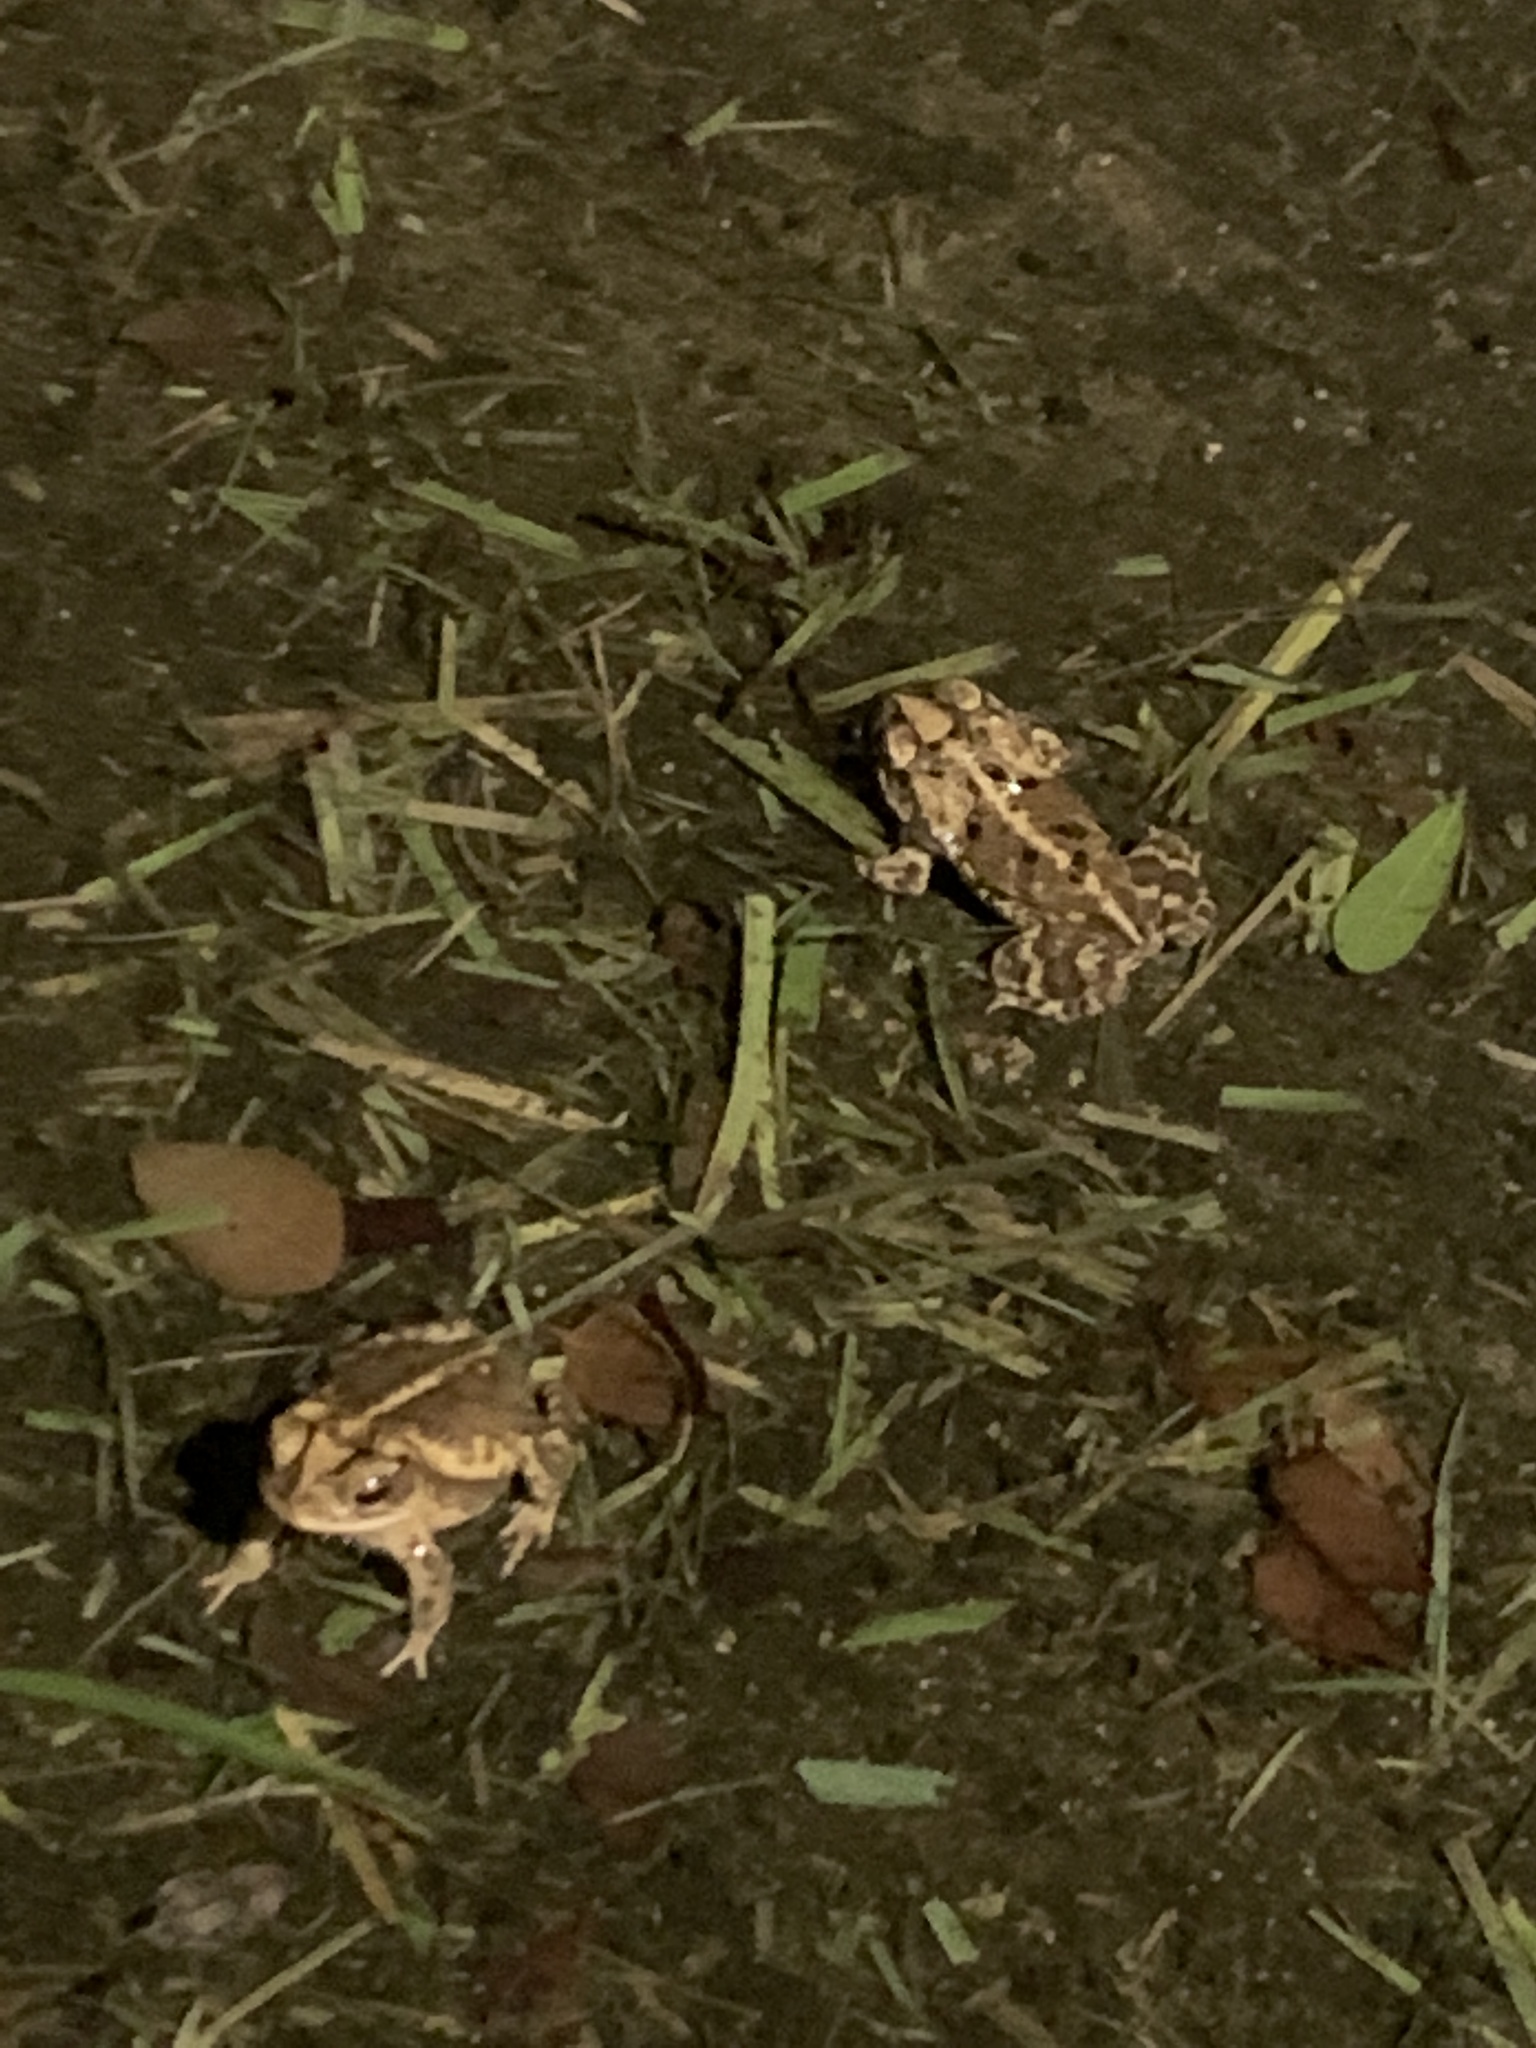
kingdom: Animalia
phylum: Chordata
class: Amphibia
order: Anura
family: Bufonidae
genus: Incilius
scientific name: Incilius nebulifer
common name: Gulf coast toad
